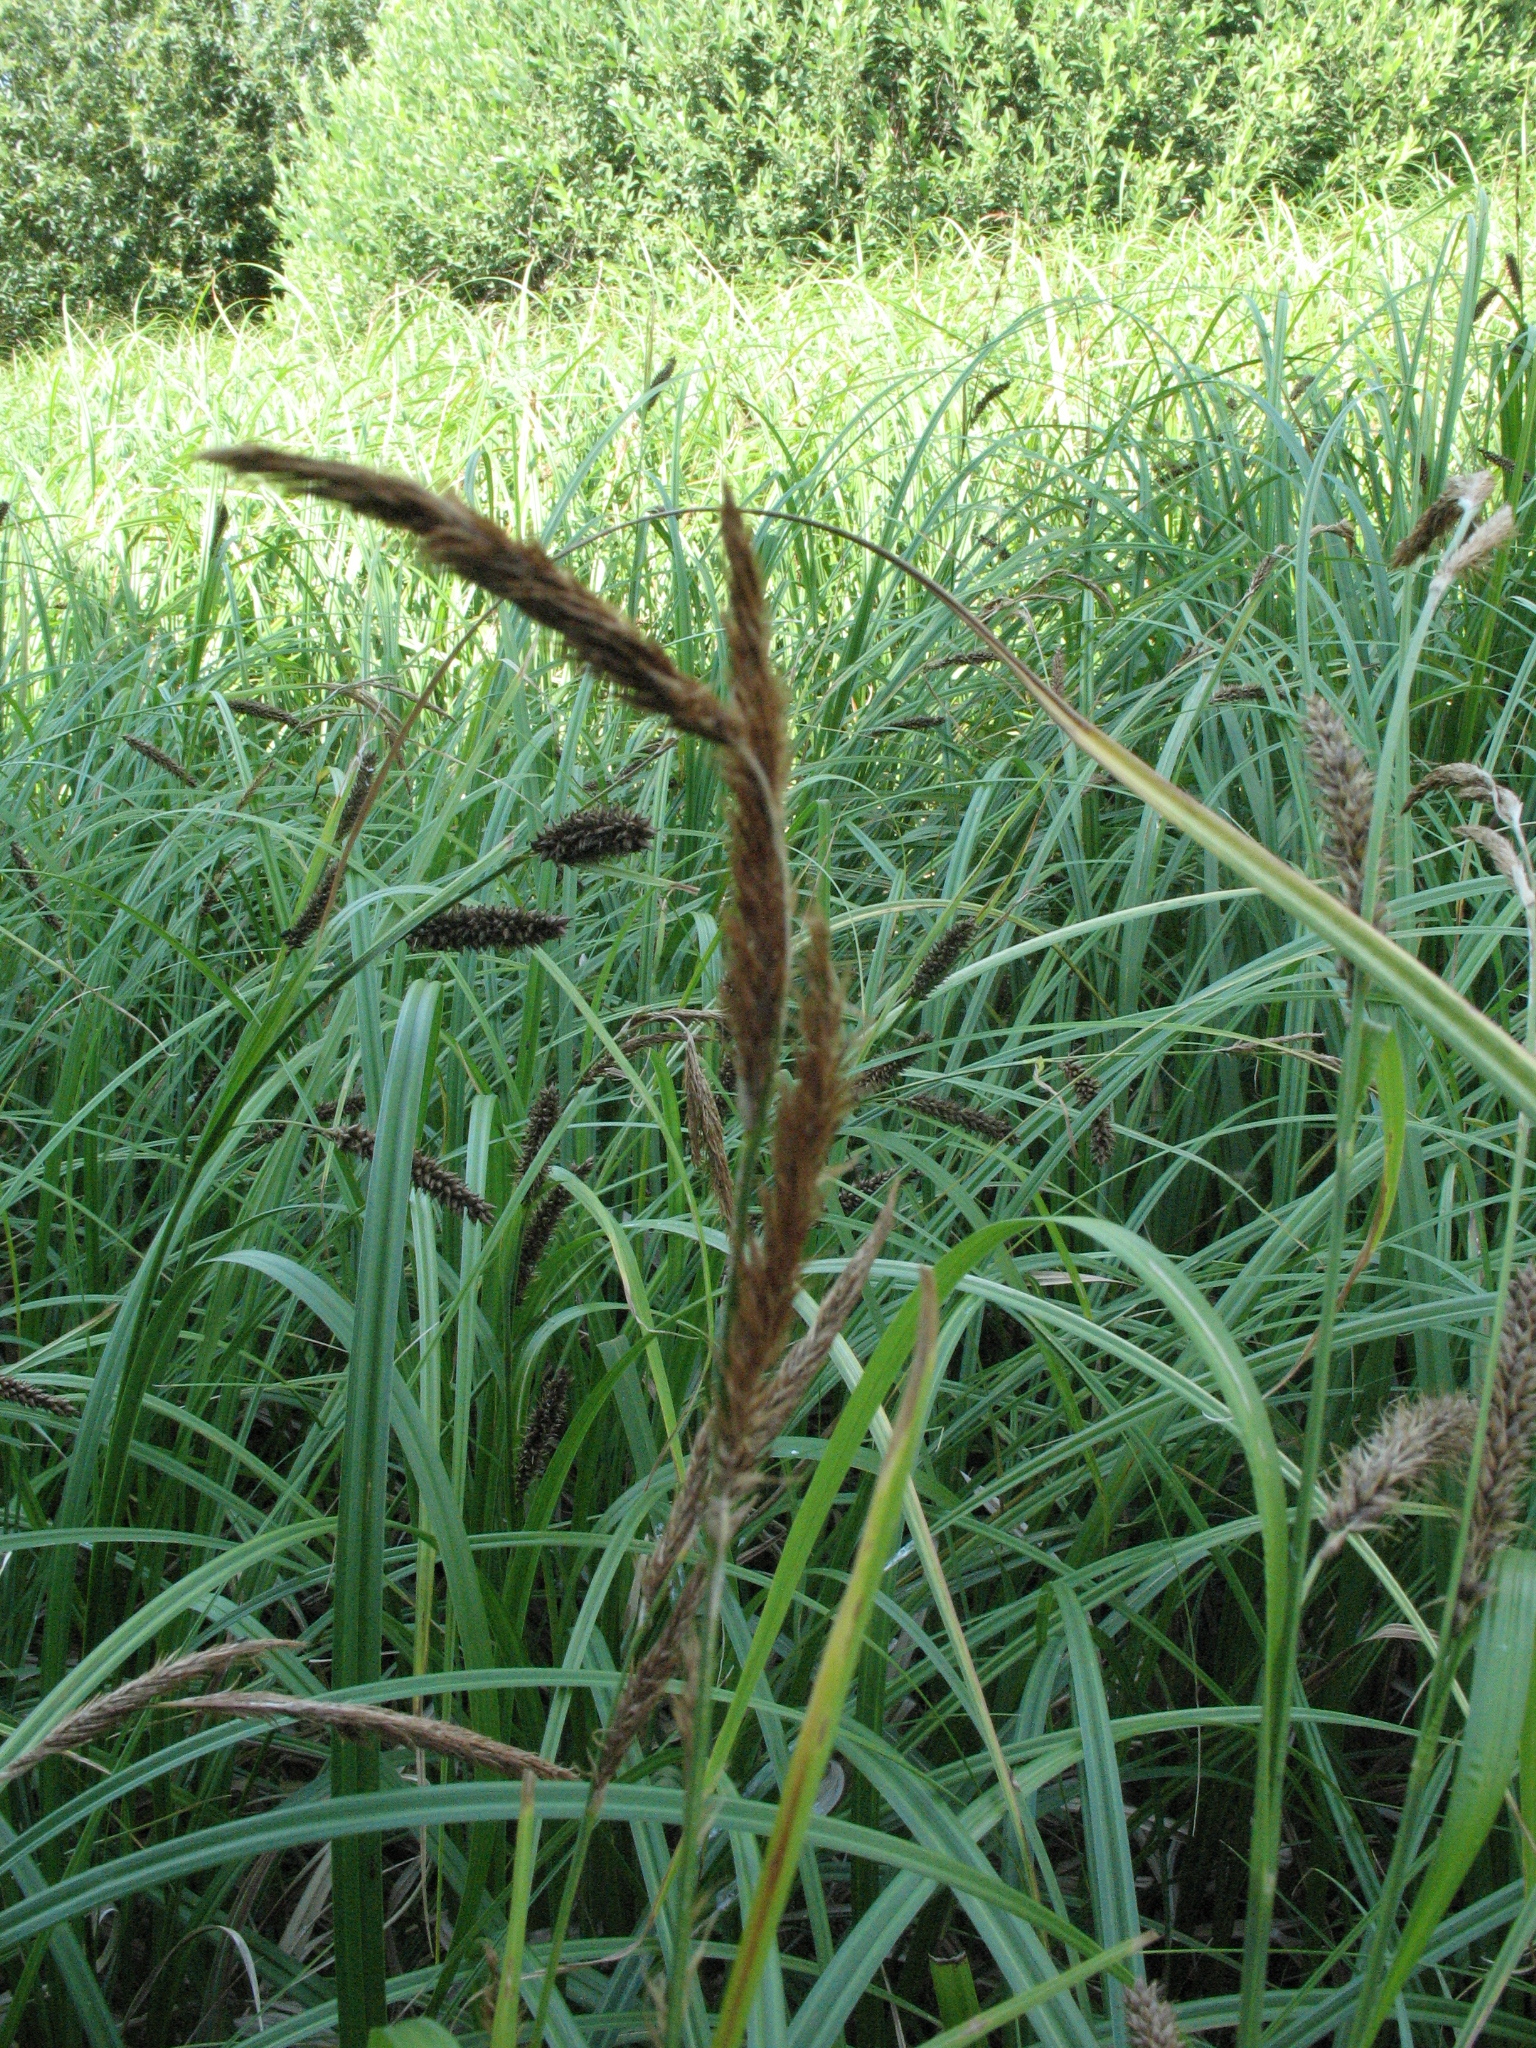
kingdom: Plantae
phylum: Tracheophyta
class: Liliopsida
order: Poales
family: Cyperaceae
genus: Carex
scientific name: Carex riparia
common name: Greater pond-sedge
